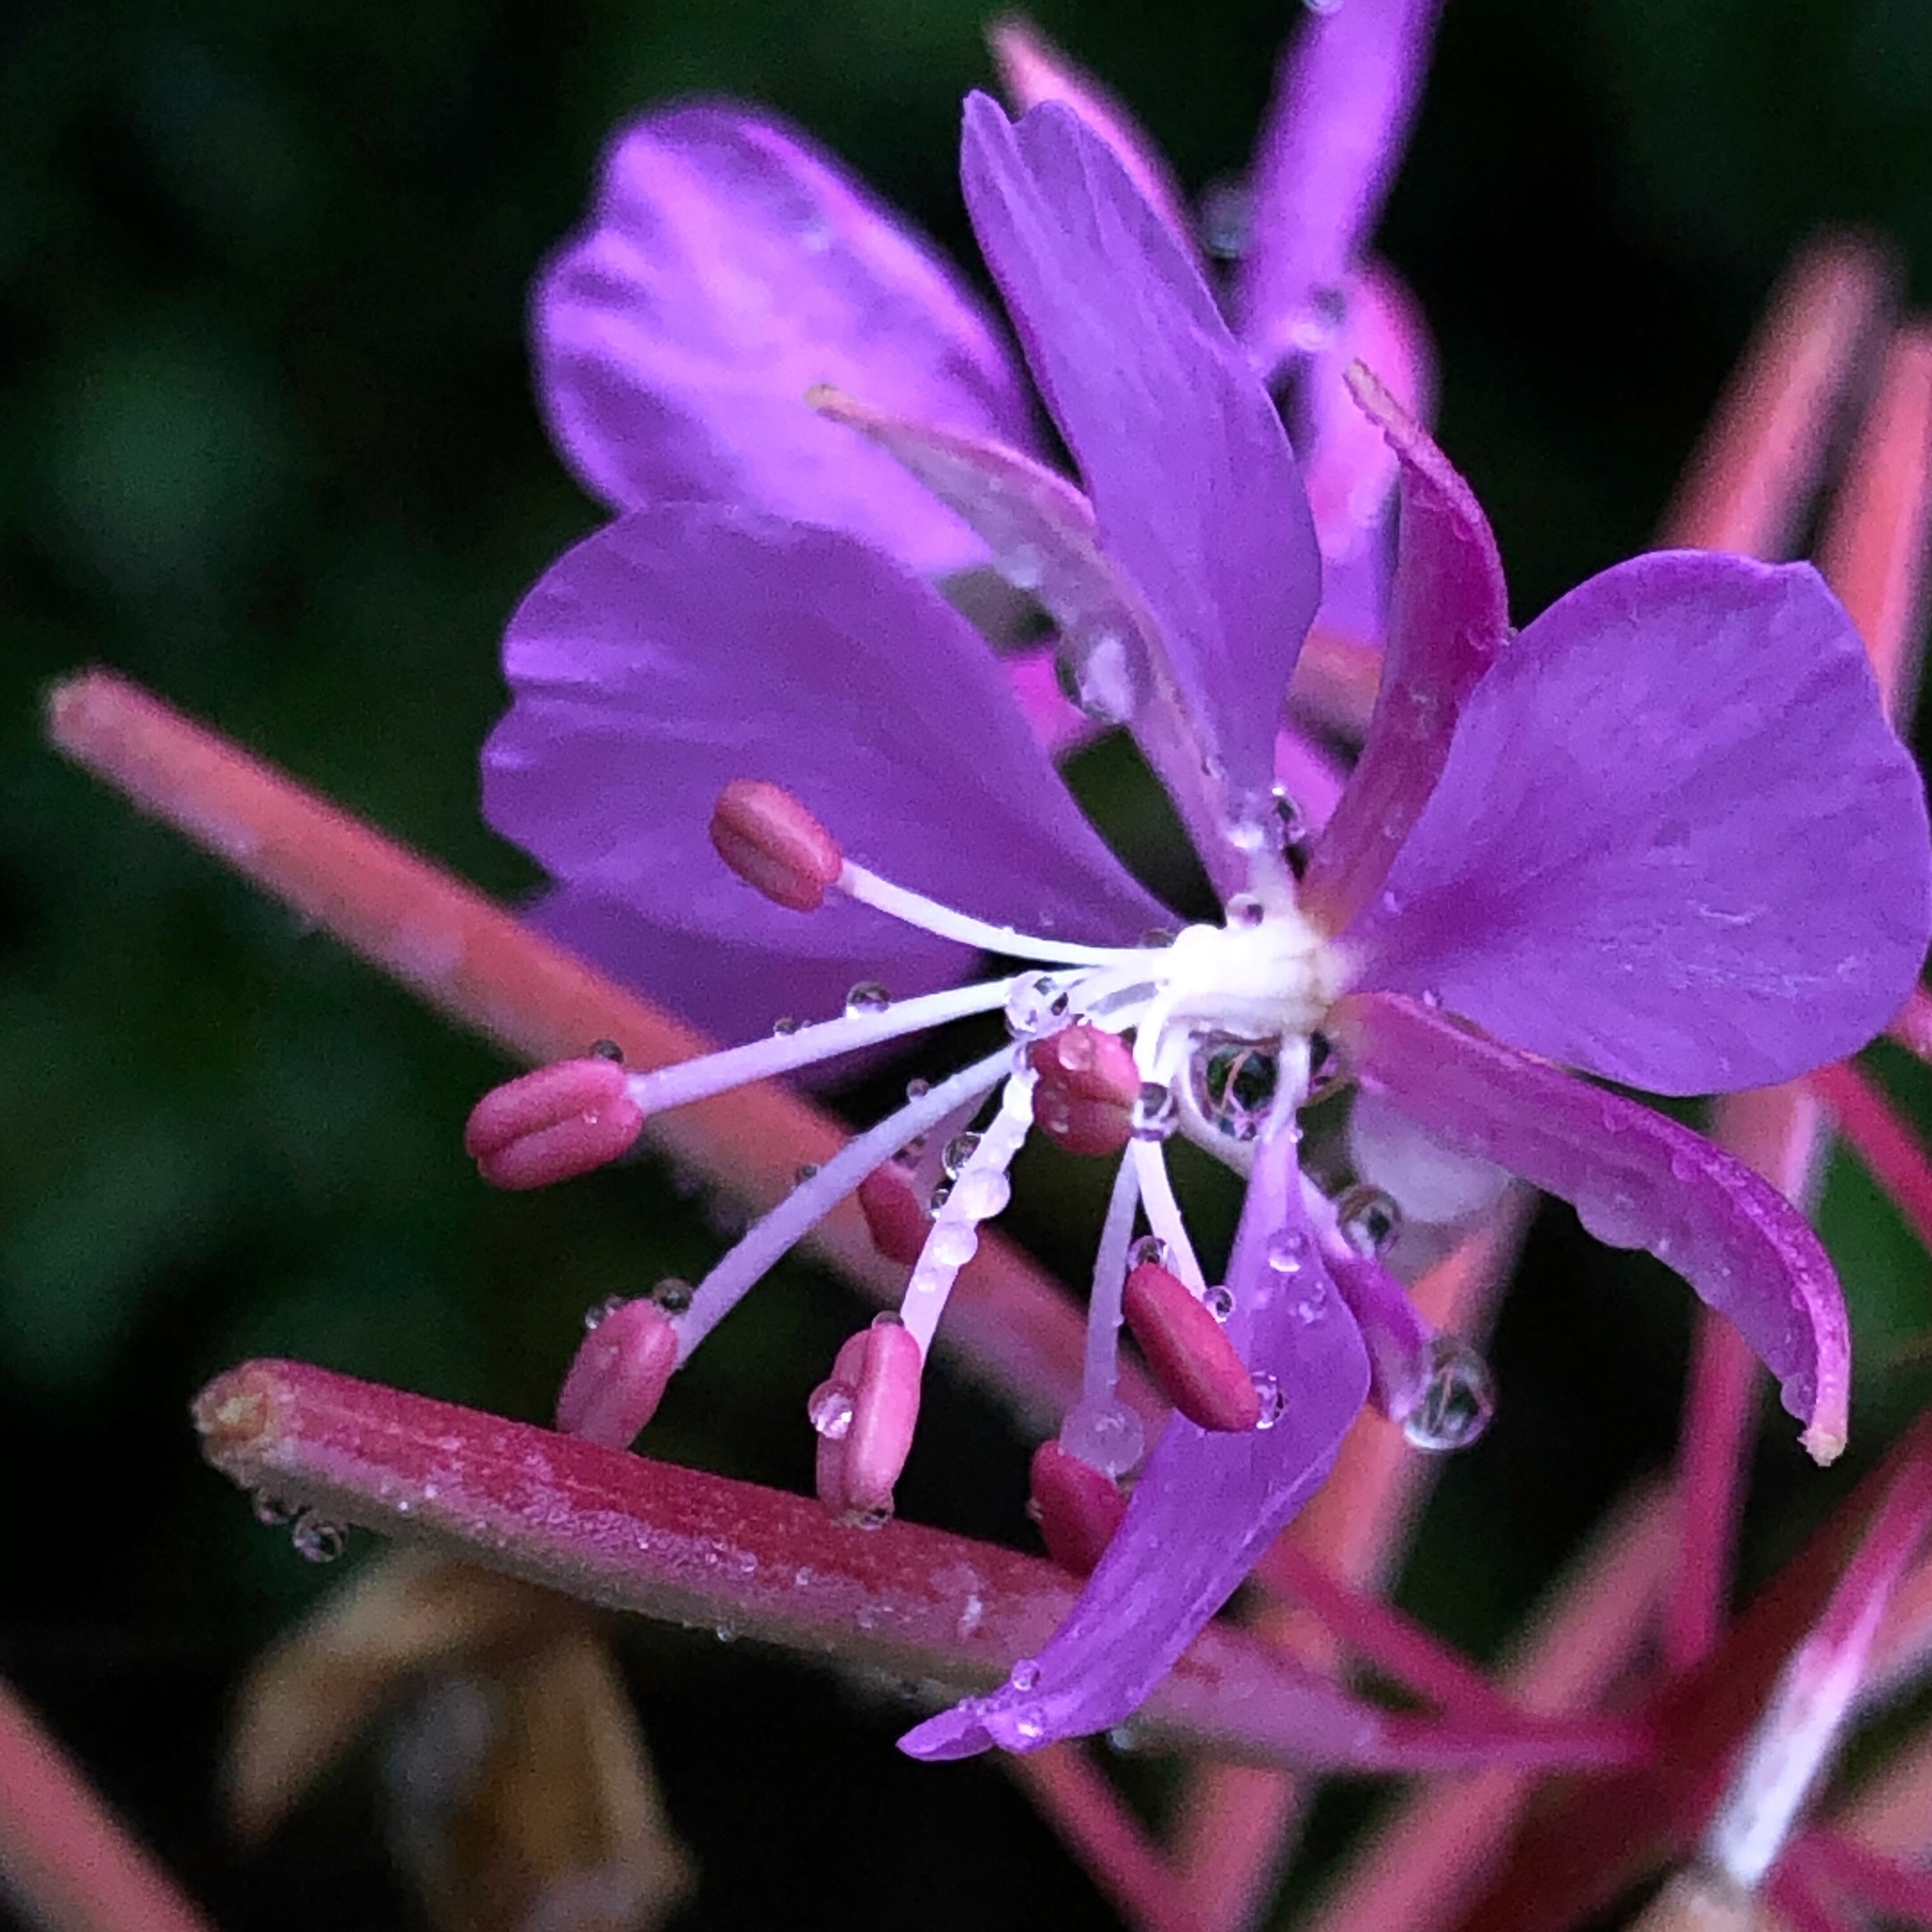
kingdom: Plantae
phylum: Tracheophyta
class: Magnoliopsida
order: Myrtales
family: Onagraceae
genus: Chamaenerion
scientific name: Chamaenerion angustifolium
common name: Fireweed
